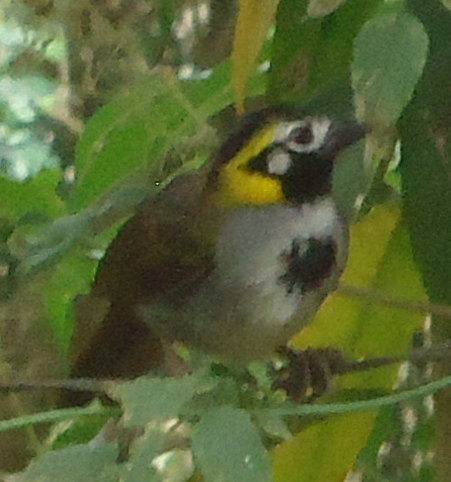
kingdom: Animalia
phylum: Chordata
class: Aves
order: Passeriformes
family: Passerellidae
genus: Melozone
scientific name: Melozone leucotis
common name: White-eared ground-sparrow
